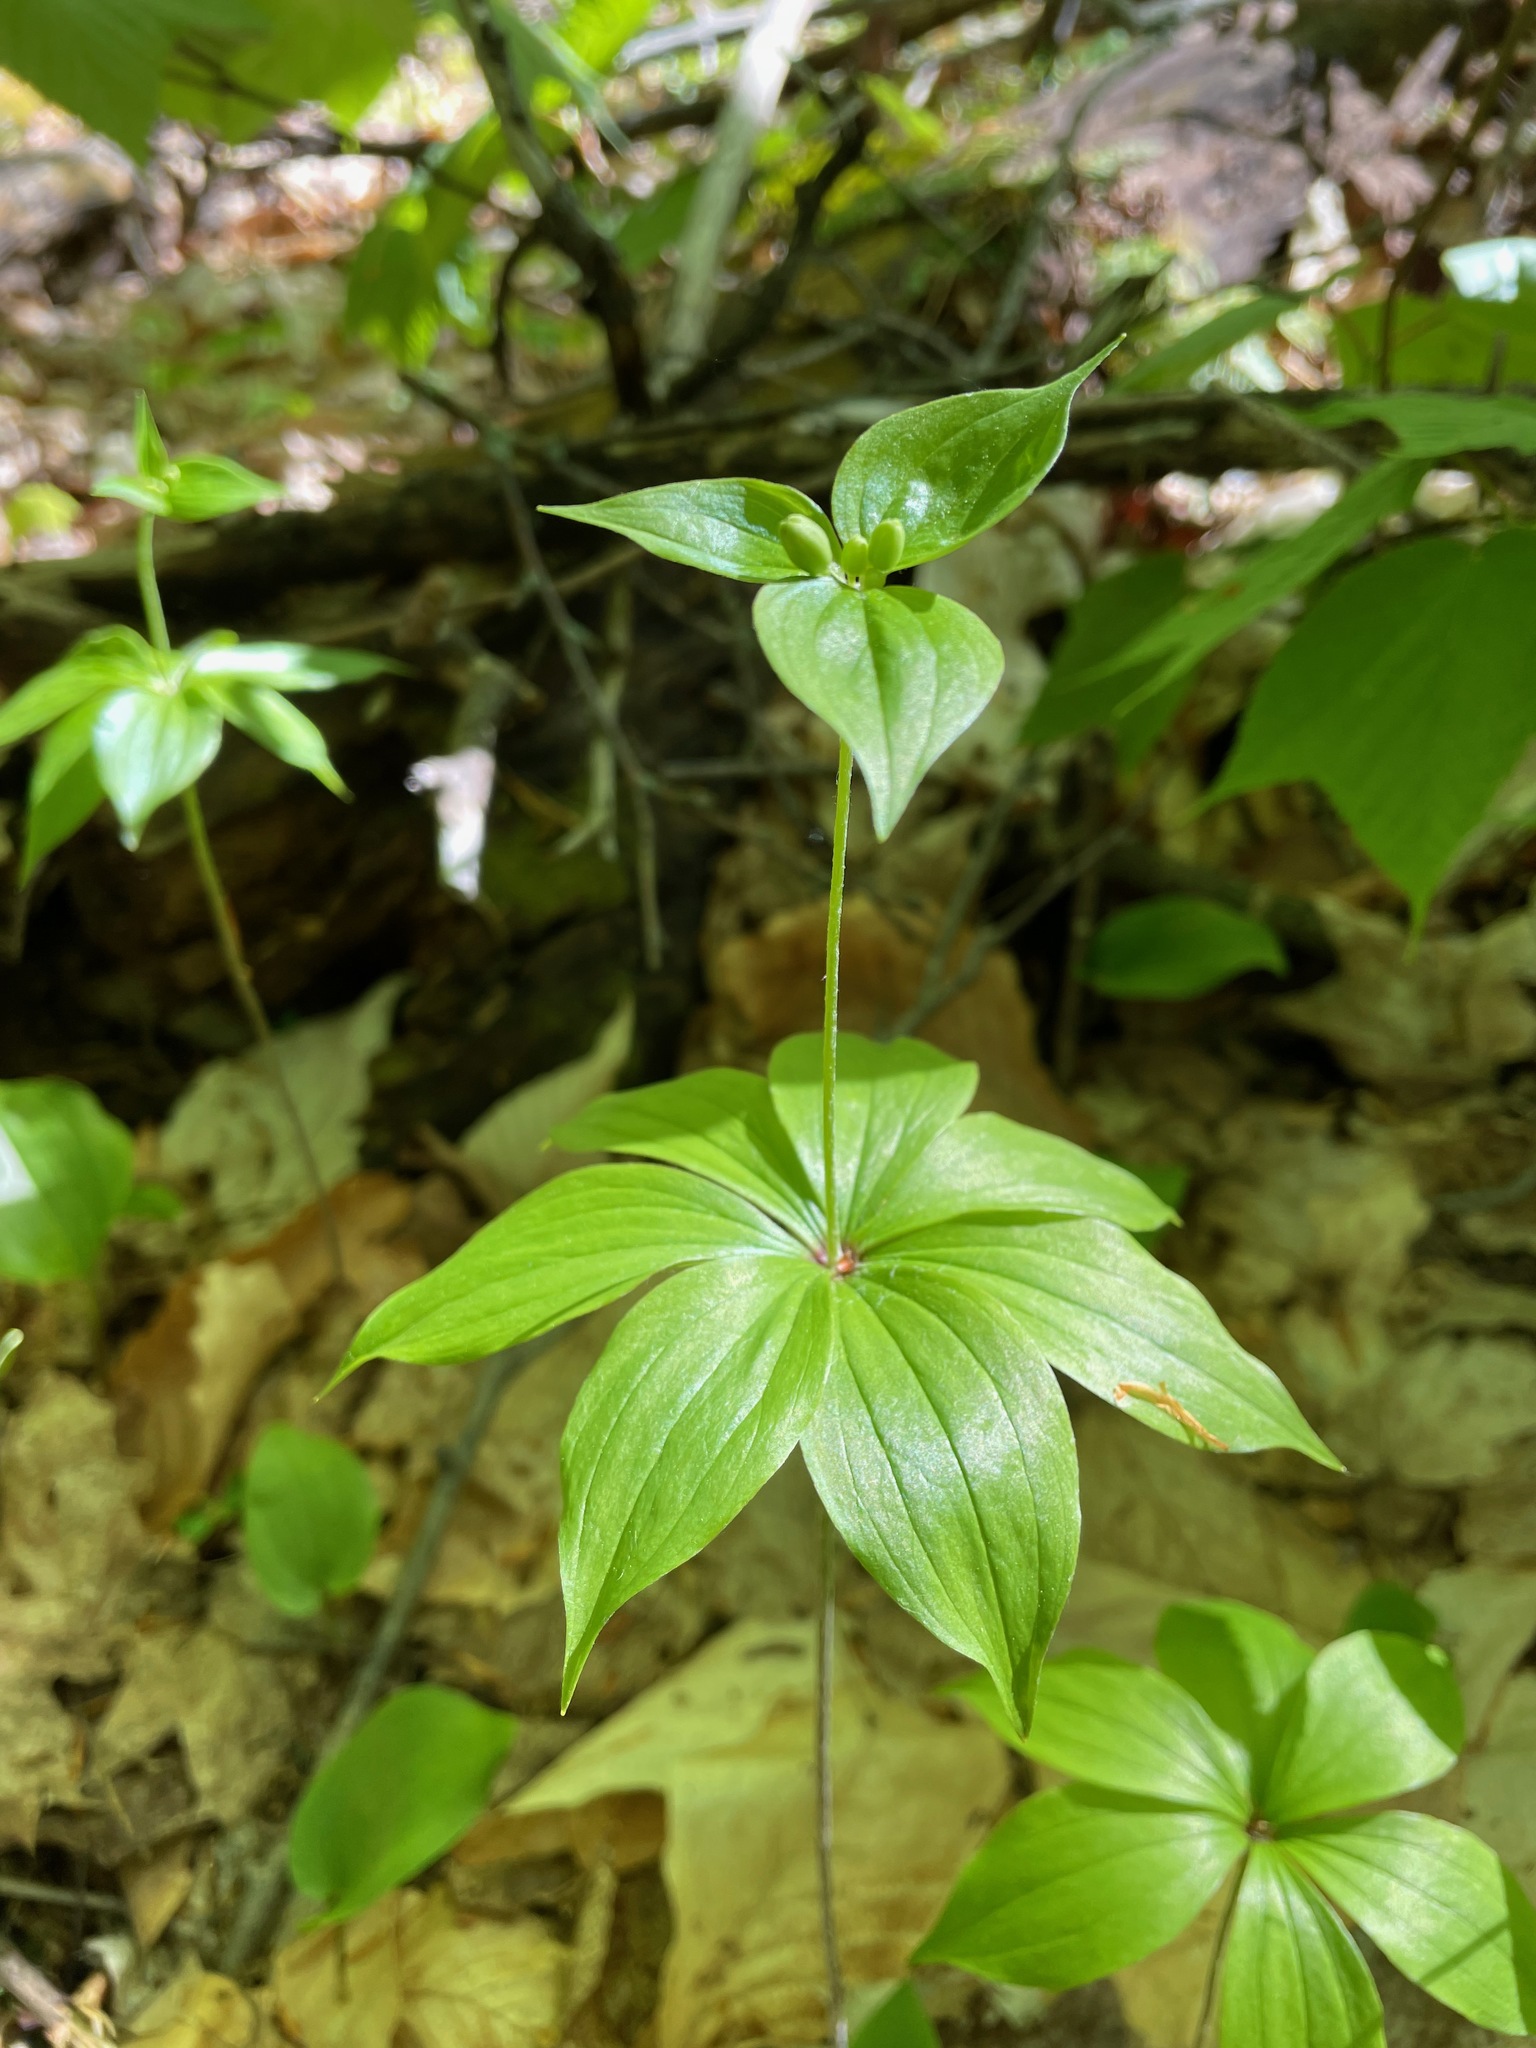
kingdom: Plantae
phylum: Tracheophyta
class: Liliopsida
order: Liliales
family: Liliaceae
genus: Medeola
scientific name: Medeola virginiana
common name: Indian cucumber-root
